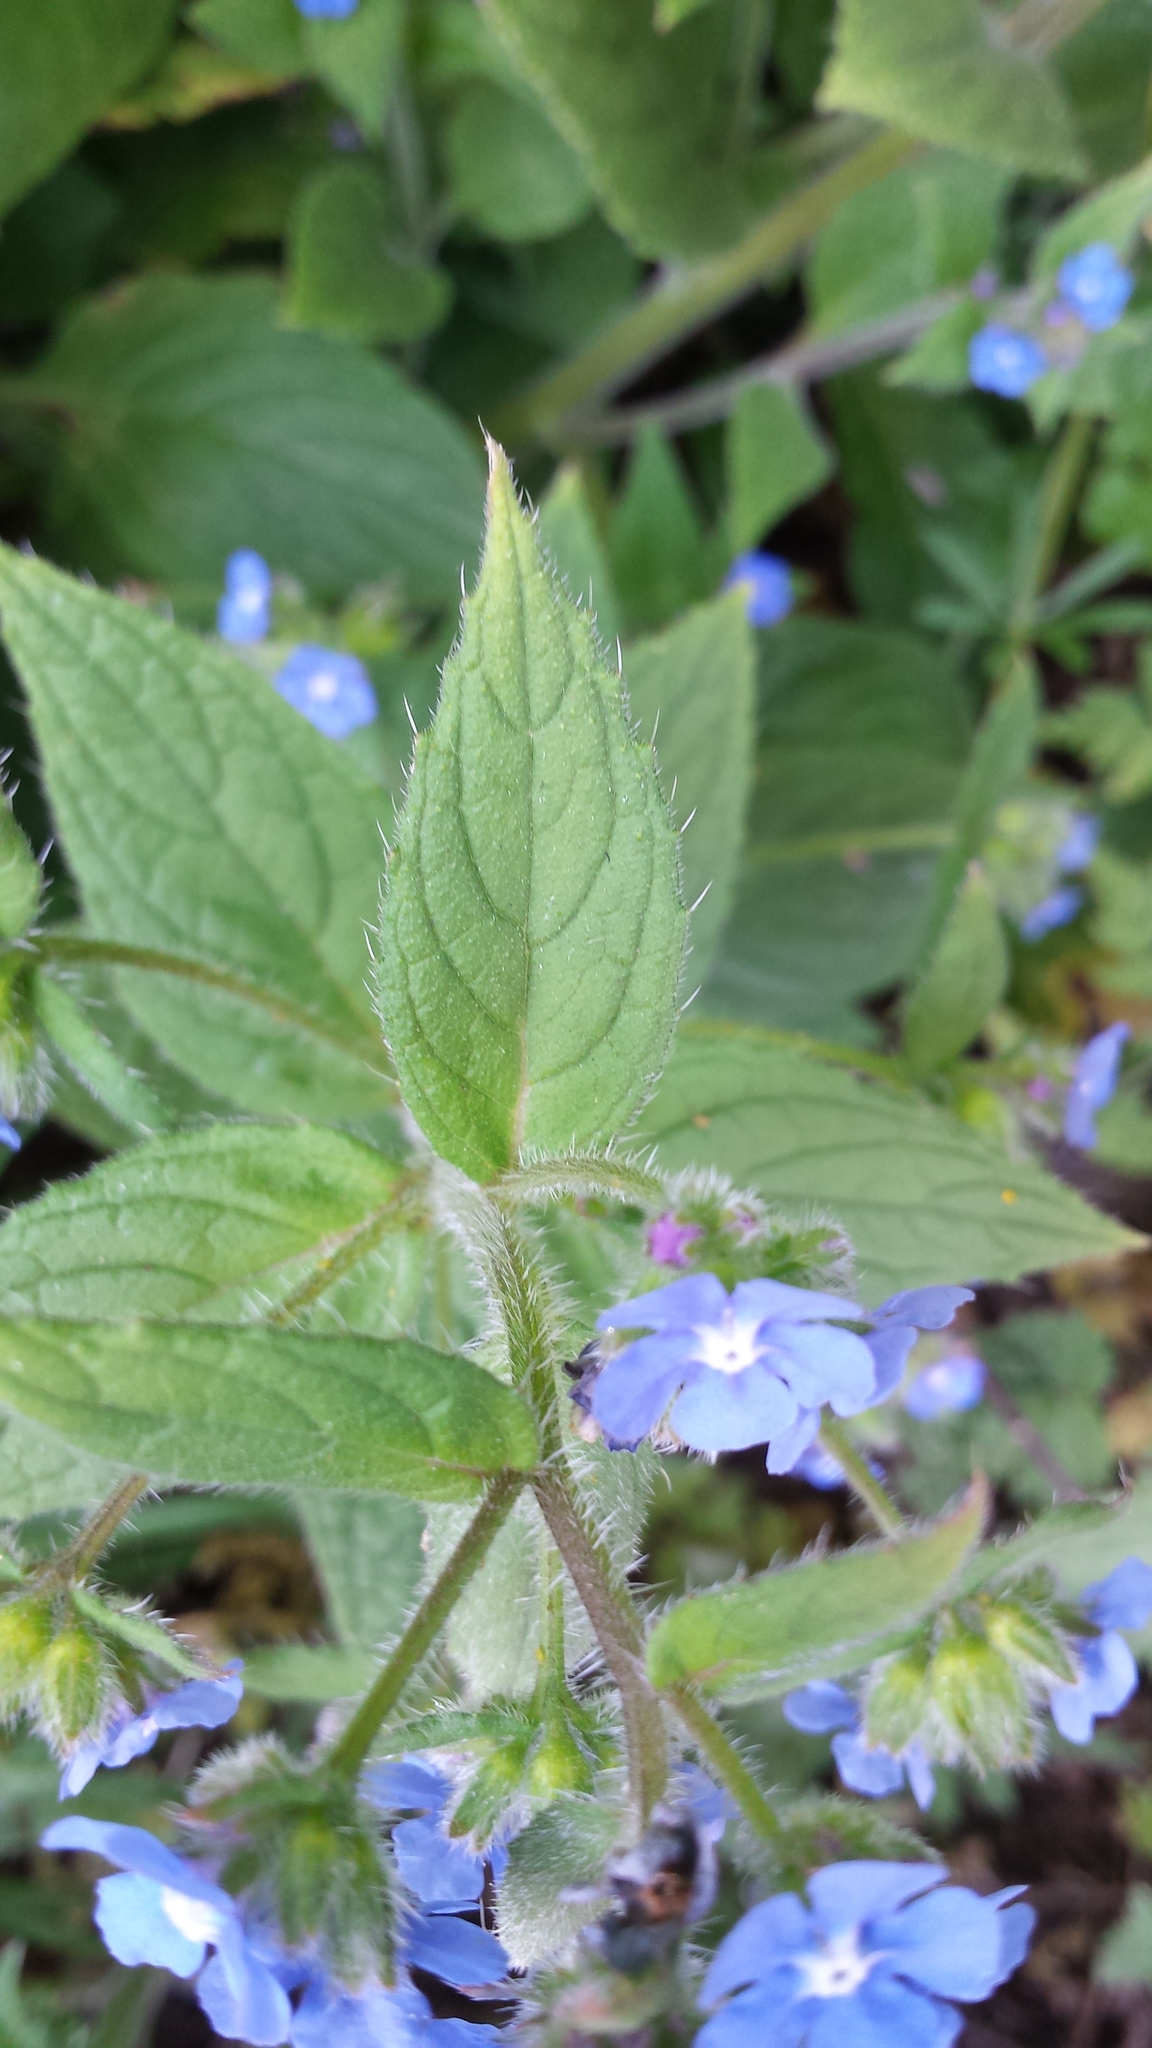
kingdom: Plantae
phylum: Tracheophyta
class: Magnoliopsida
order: Boraginales
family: Boraginaceae
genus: Pentaglottis
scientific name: Pentaglottis sempervirens
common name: Green alkanet
